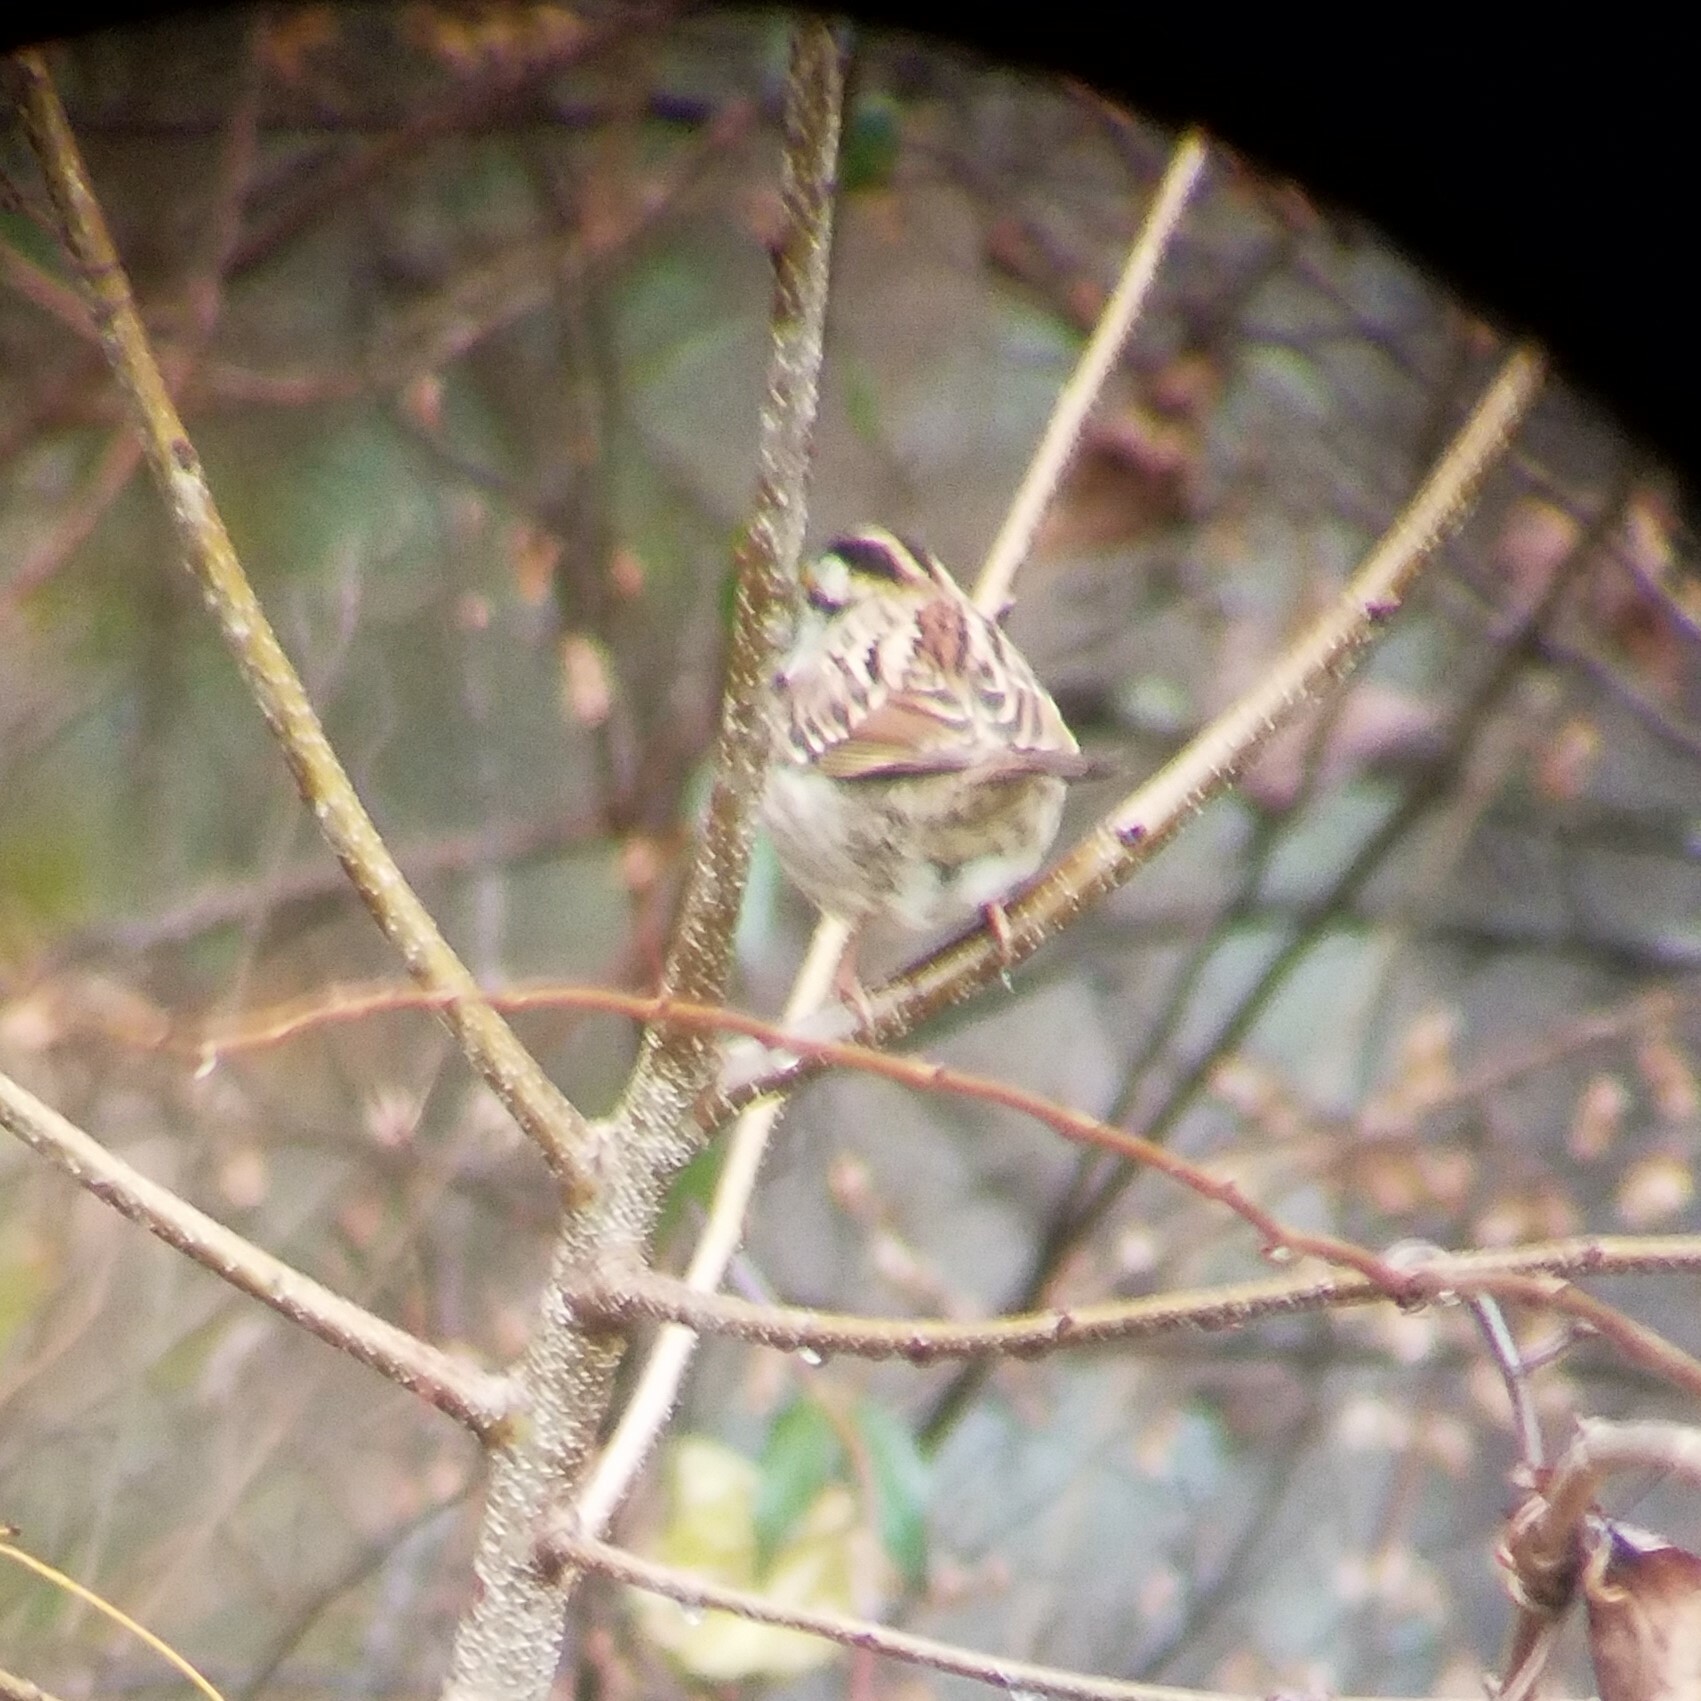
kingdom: Animalia
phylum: Chordata
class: Aves
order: Passeriformes
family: Passerellidae
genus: Zonotrichia
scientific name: Zonotrichia albicollis
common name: White-throated sparrow
